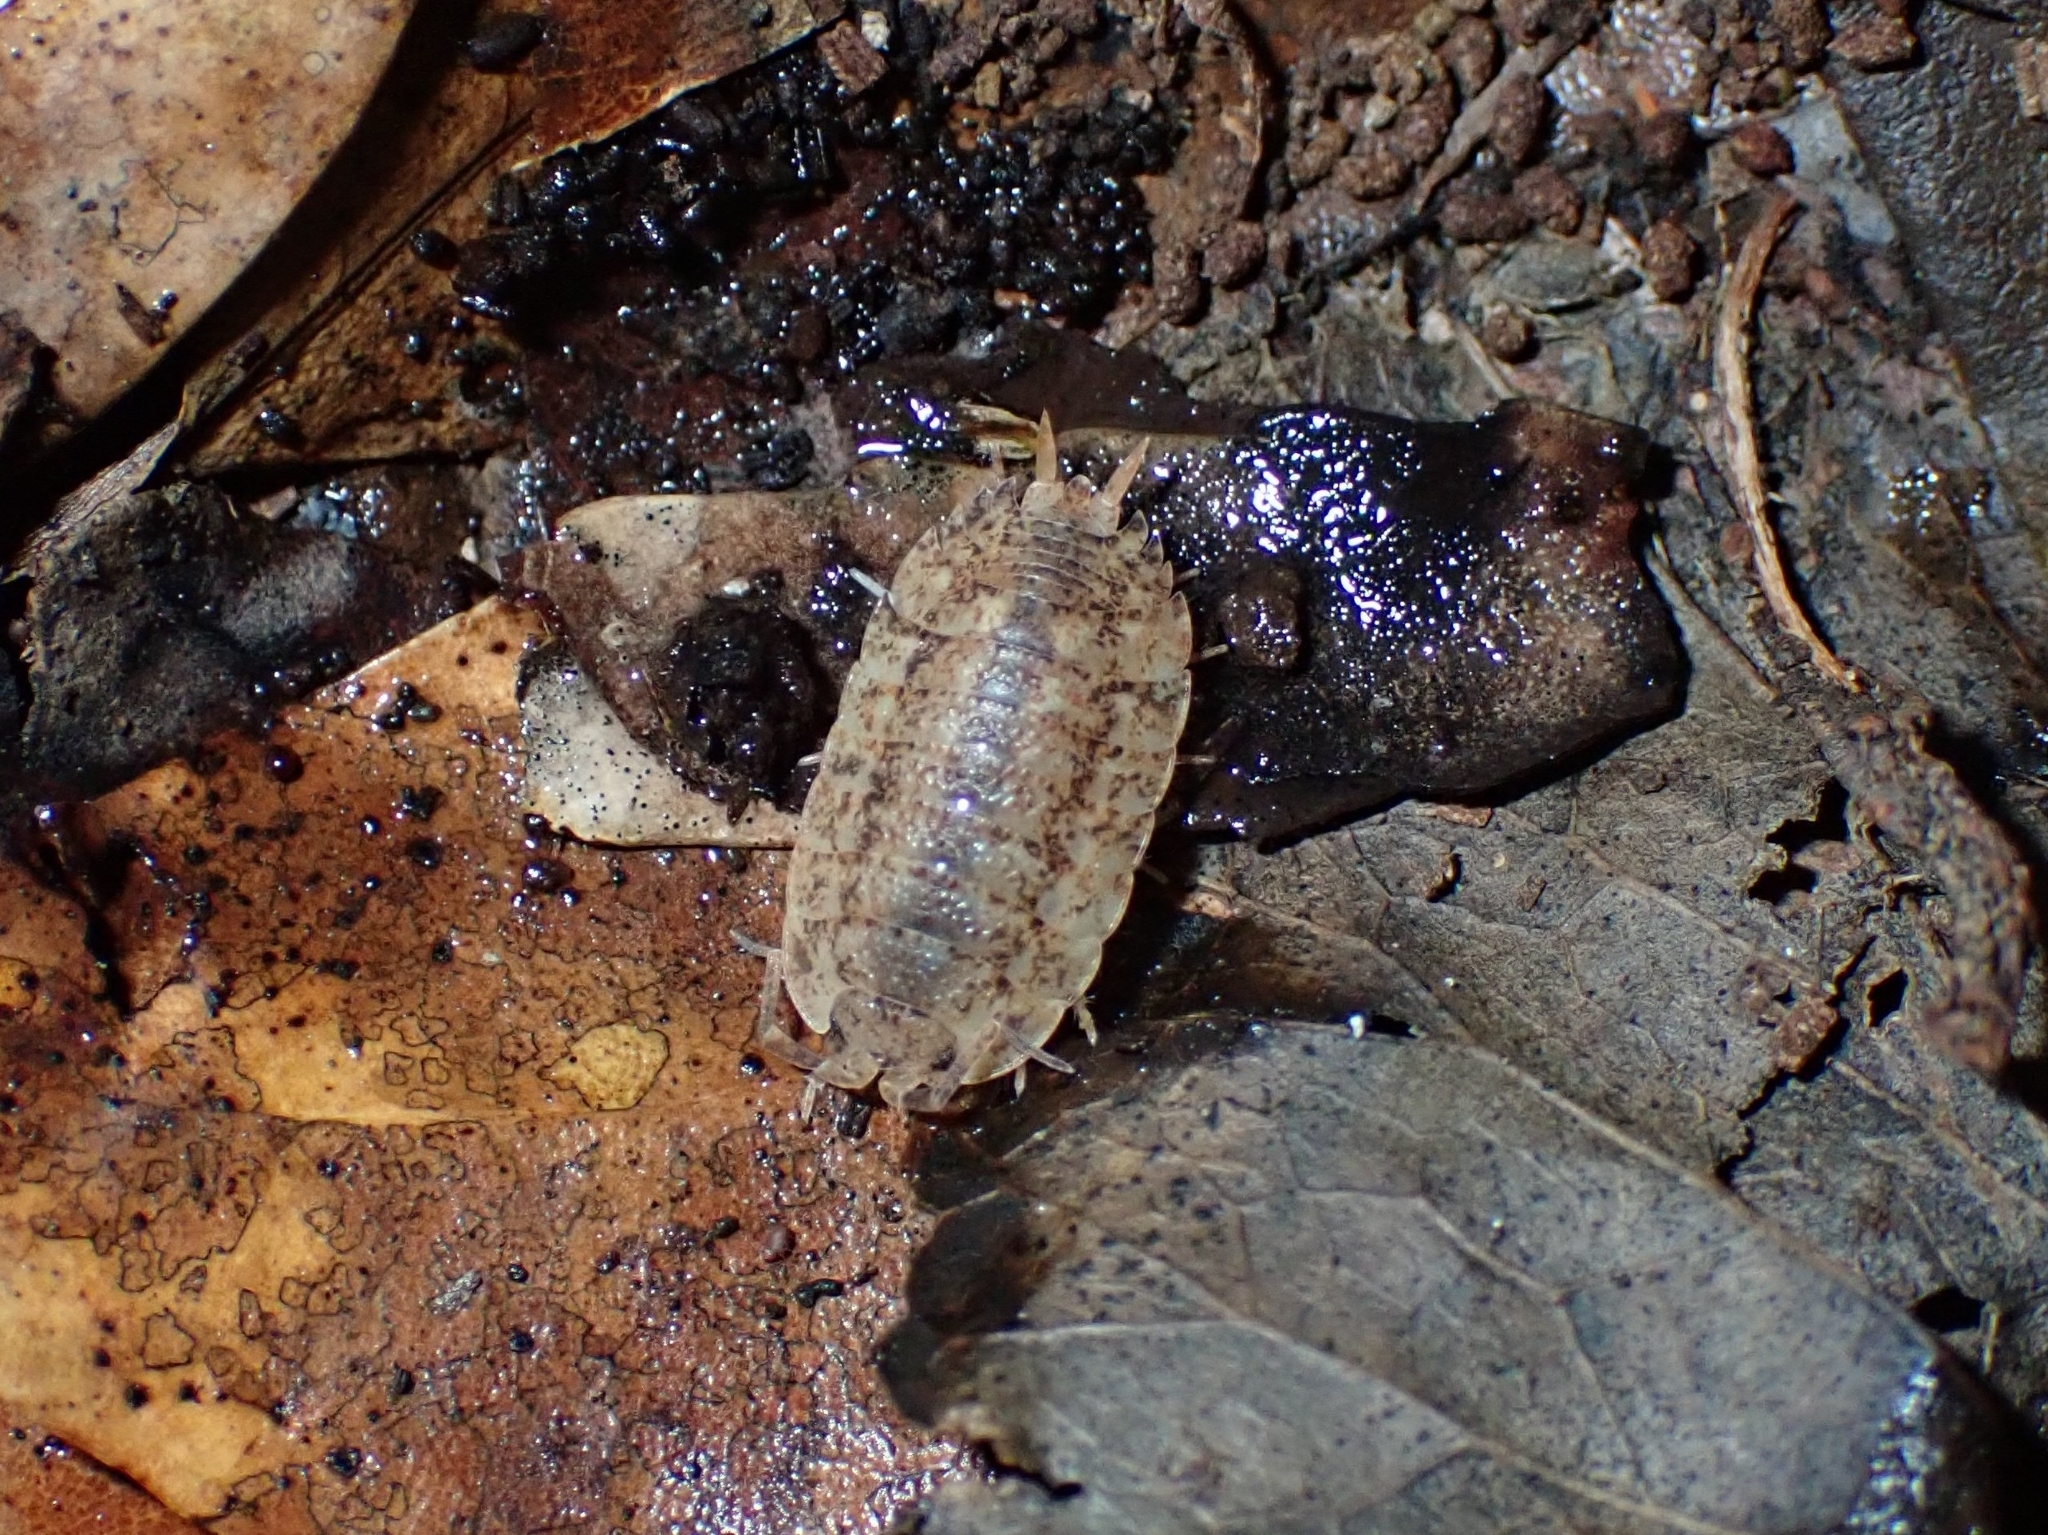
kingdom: Animalia
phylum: Arthropoda
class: Malacostraca
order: Isopoda
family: Porcellionidae
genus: Porcellio
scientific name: Porcellio anagae
